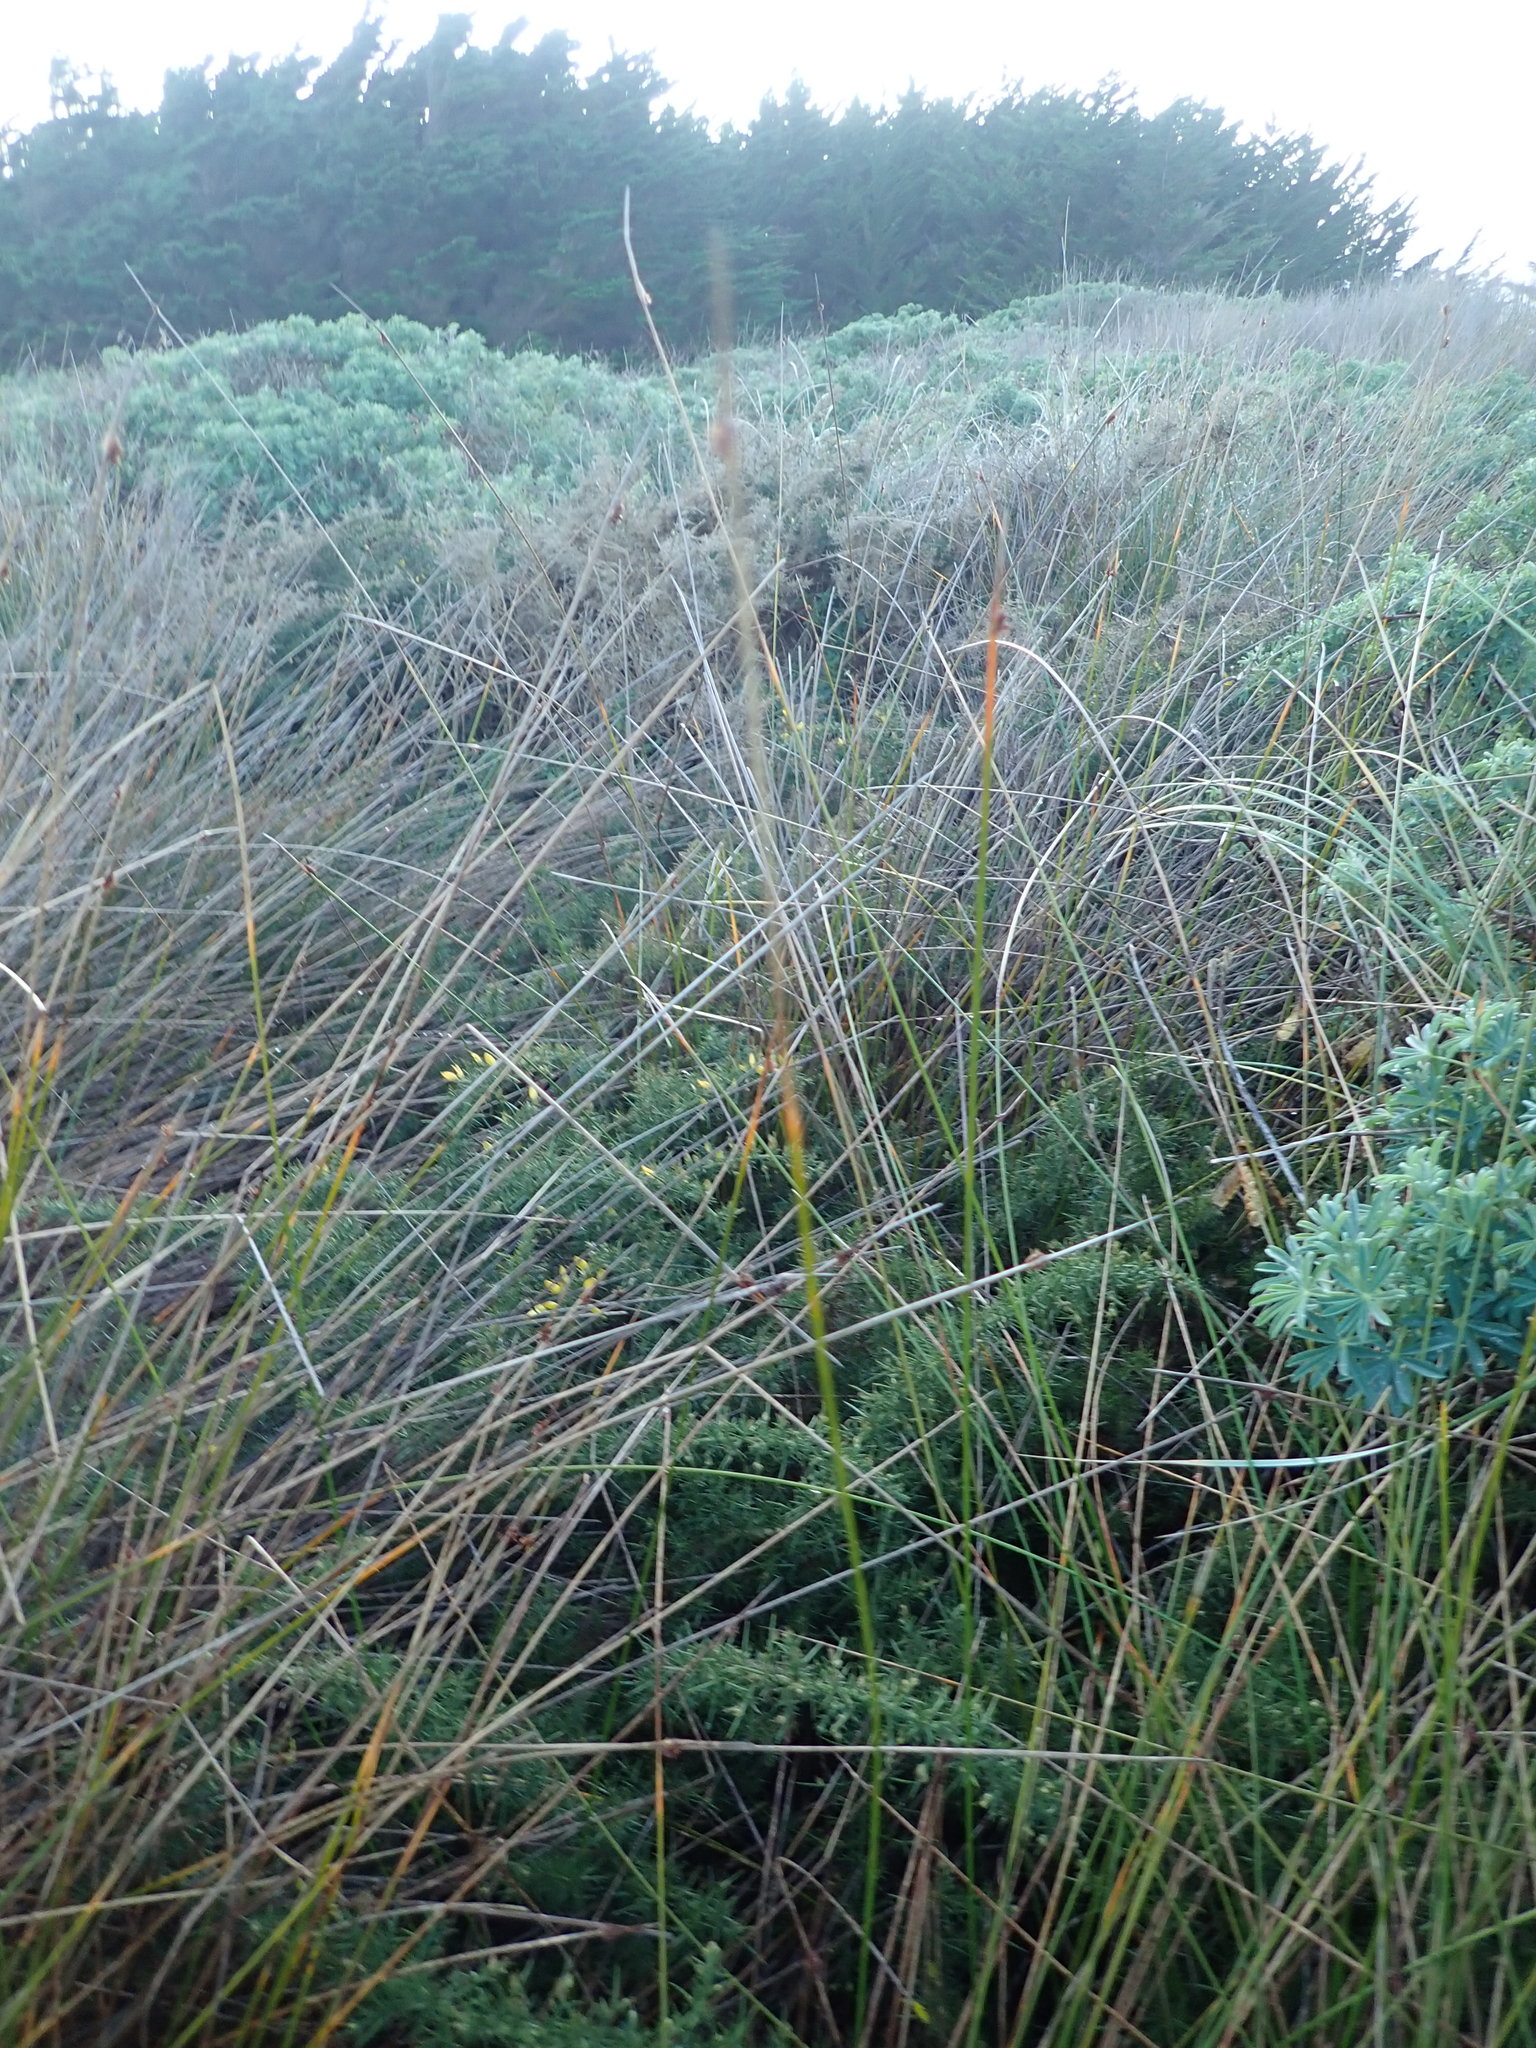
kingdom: Plantae
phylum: Tracheophyta
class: Magnoliopsida
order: Fabales
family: Fabaceae
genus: Ulex
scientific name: Ulex europaeus
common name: Common gorse
